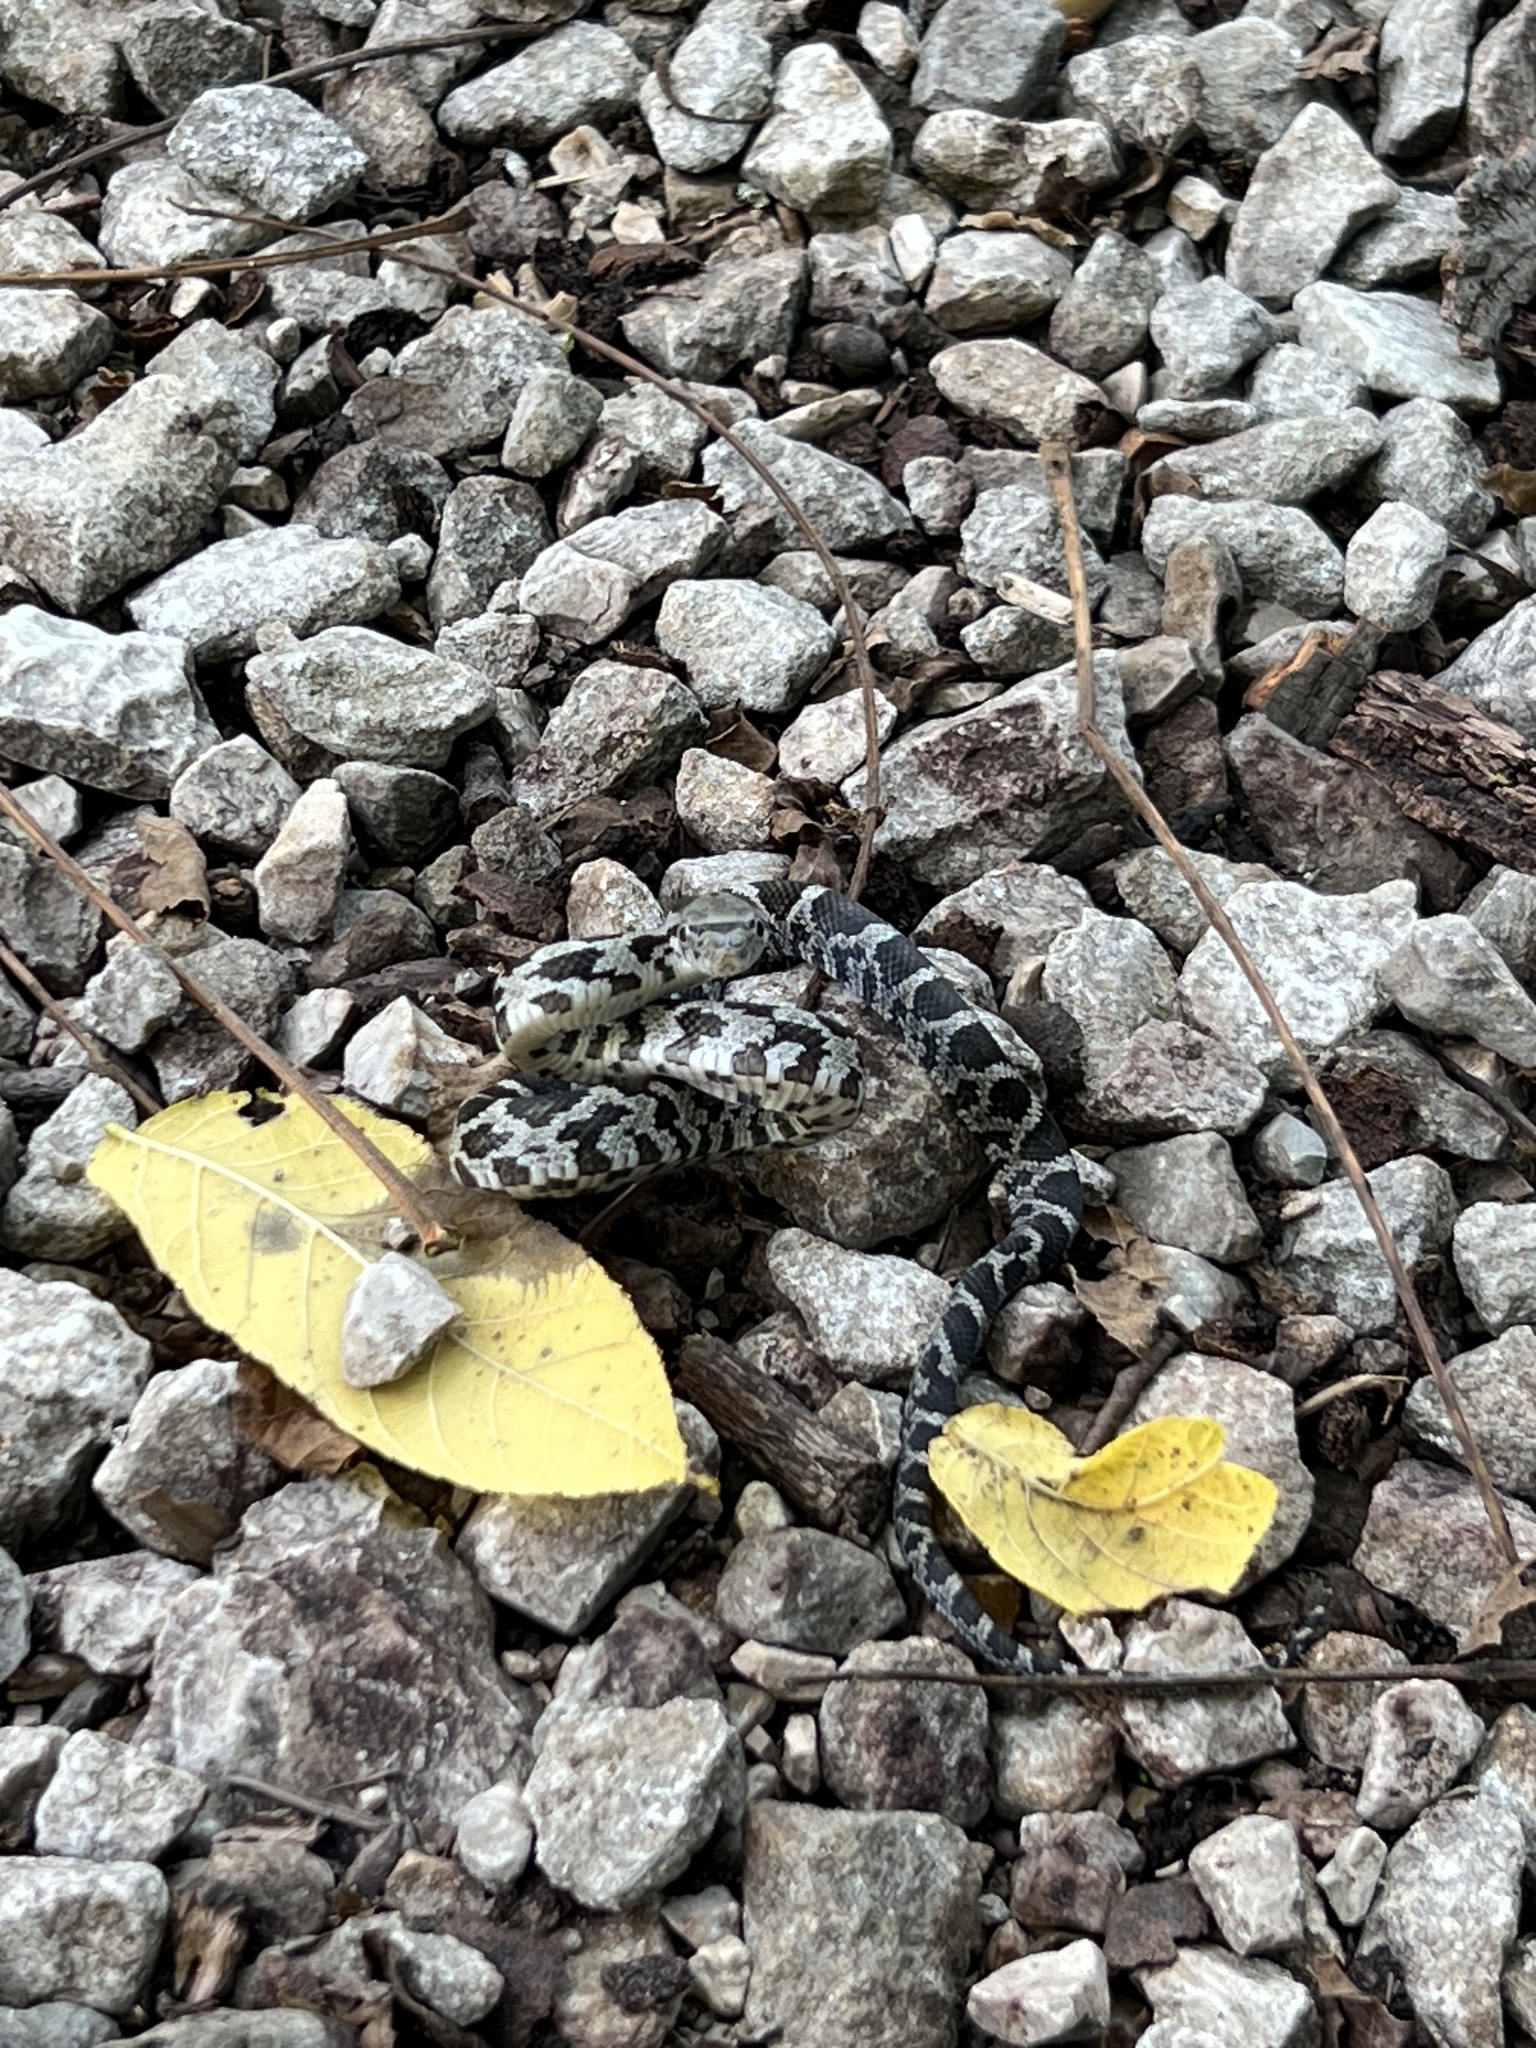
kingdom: Animalia
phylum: Chordata
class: Squamata
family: Colubridae
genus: Pantherophis
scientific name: Pantherophis spiloides
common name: Gray rat snake
